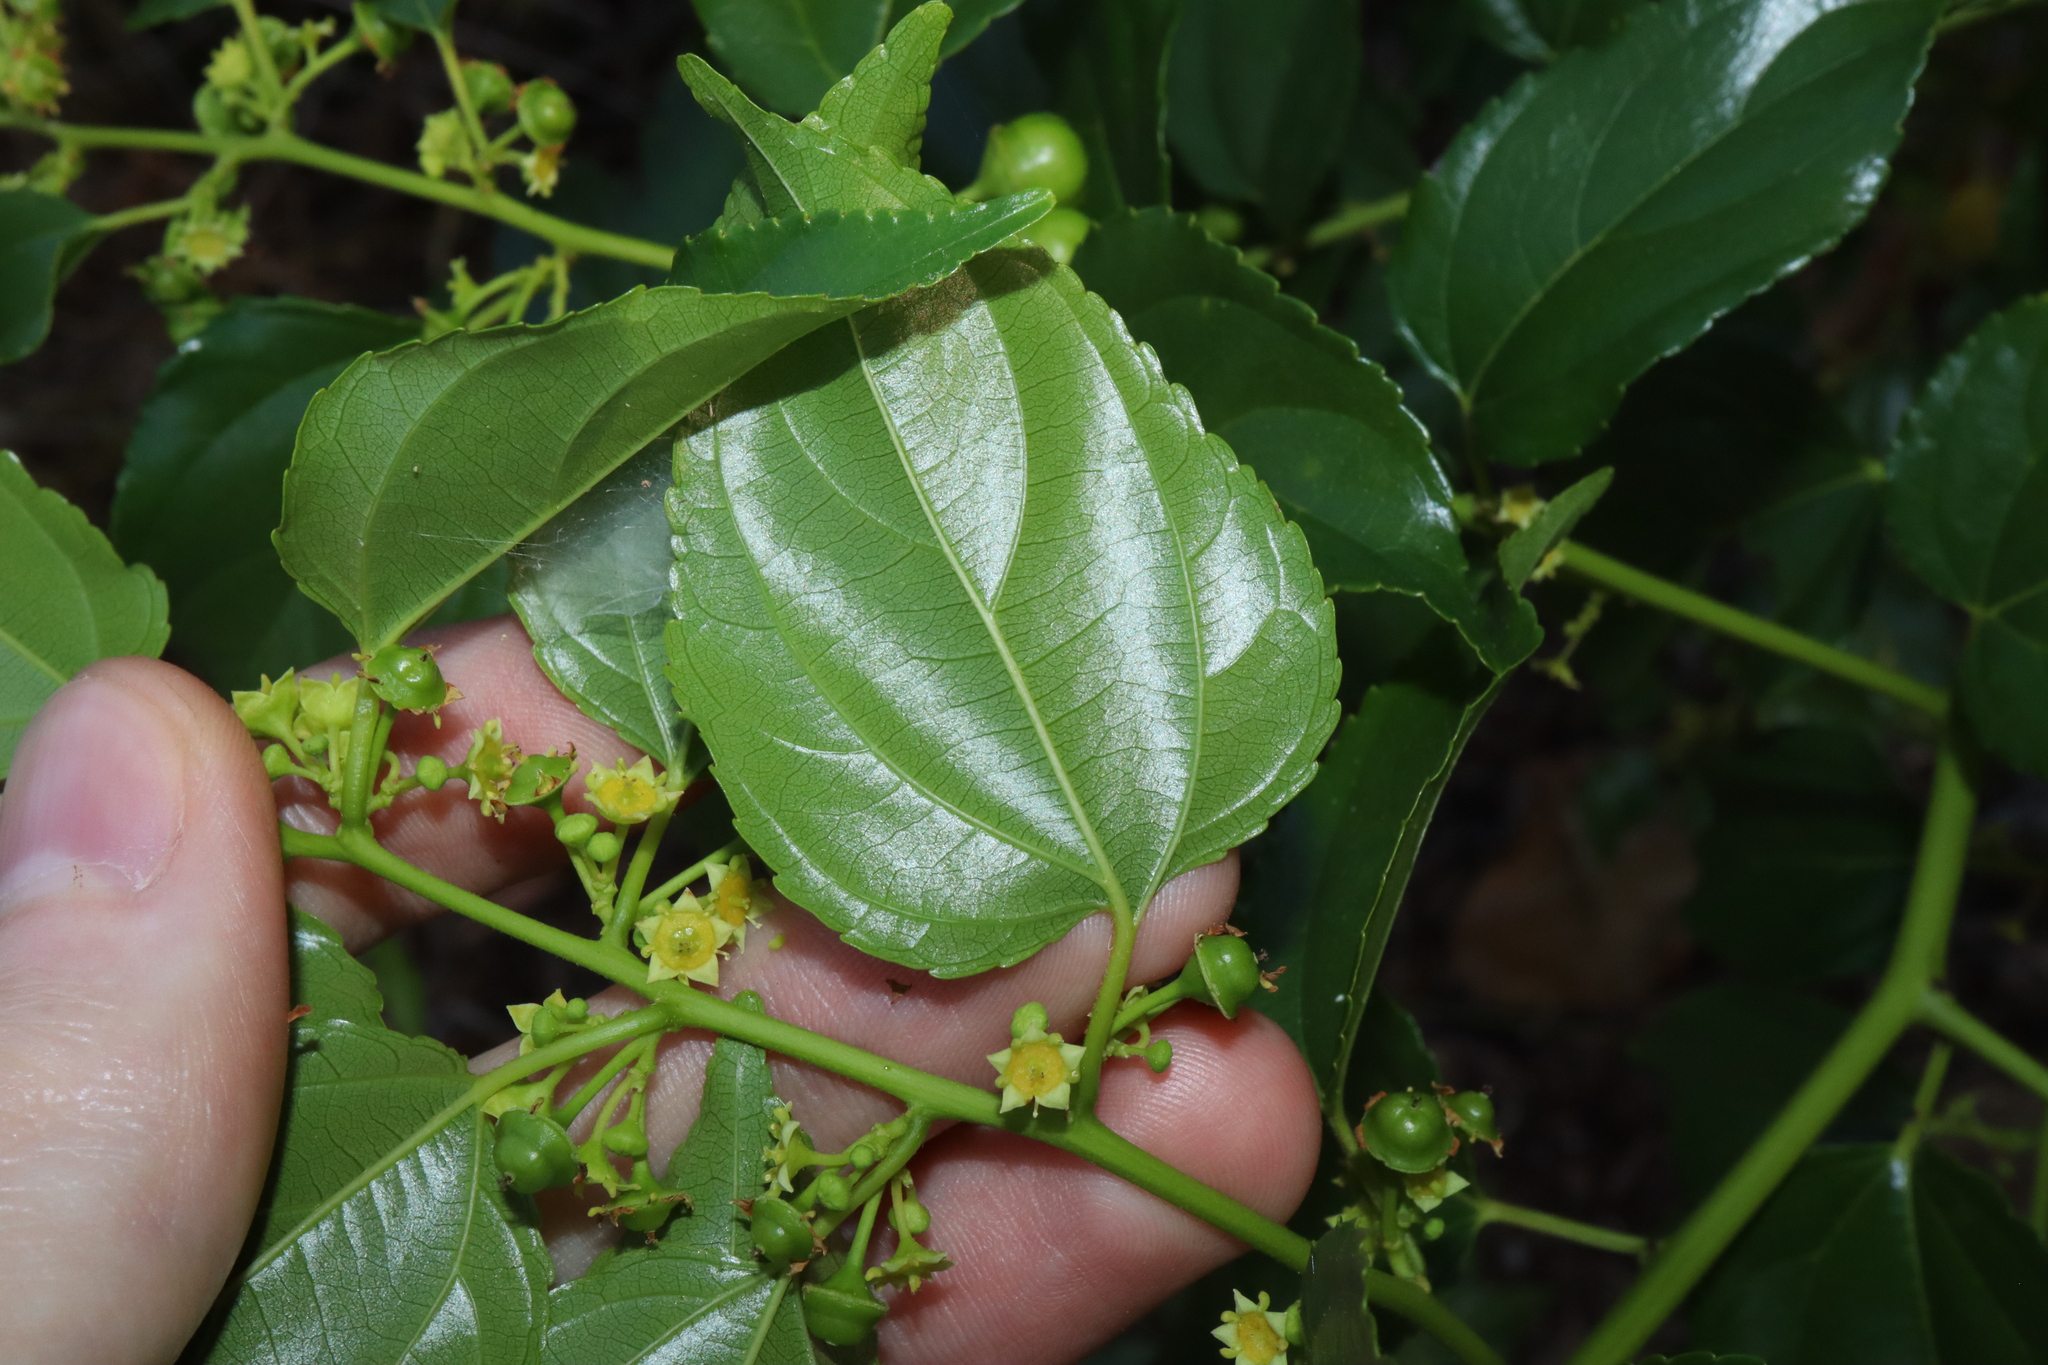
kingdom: Plantae
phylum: Tracheophyta
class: Magnoliopsida
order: Rosales
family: Rhamnaceae
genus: Colubrina
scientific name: Colubrina asiatica
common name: Asian nakedwood
